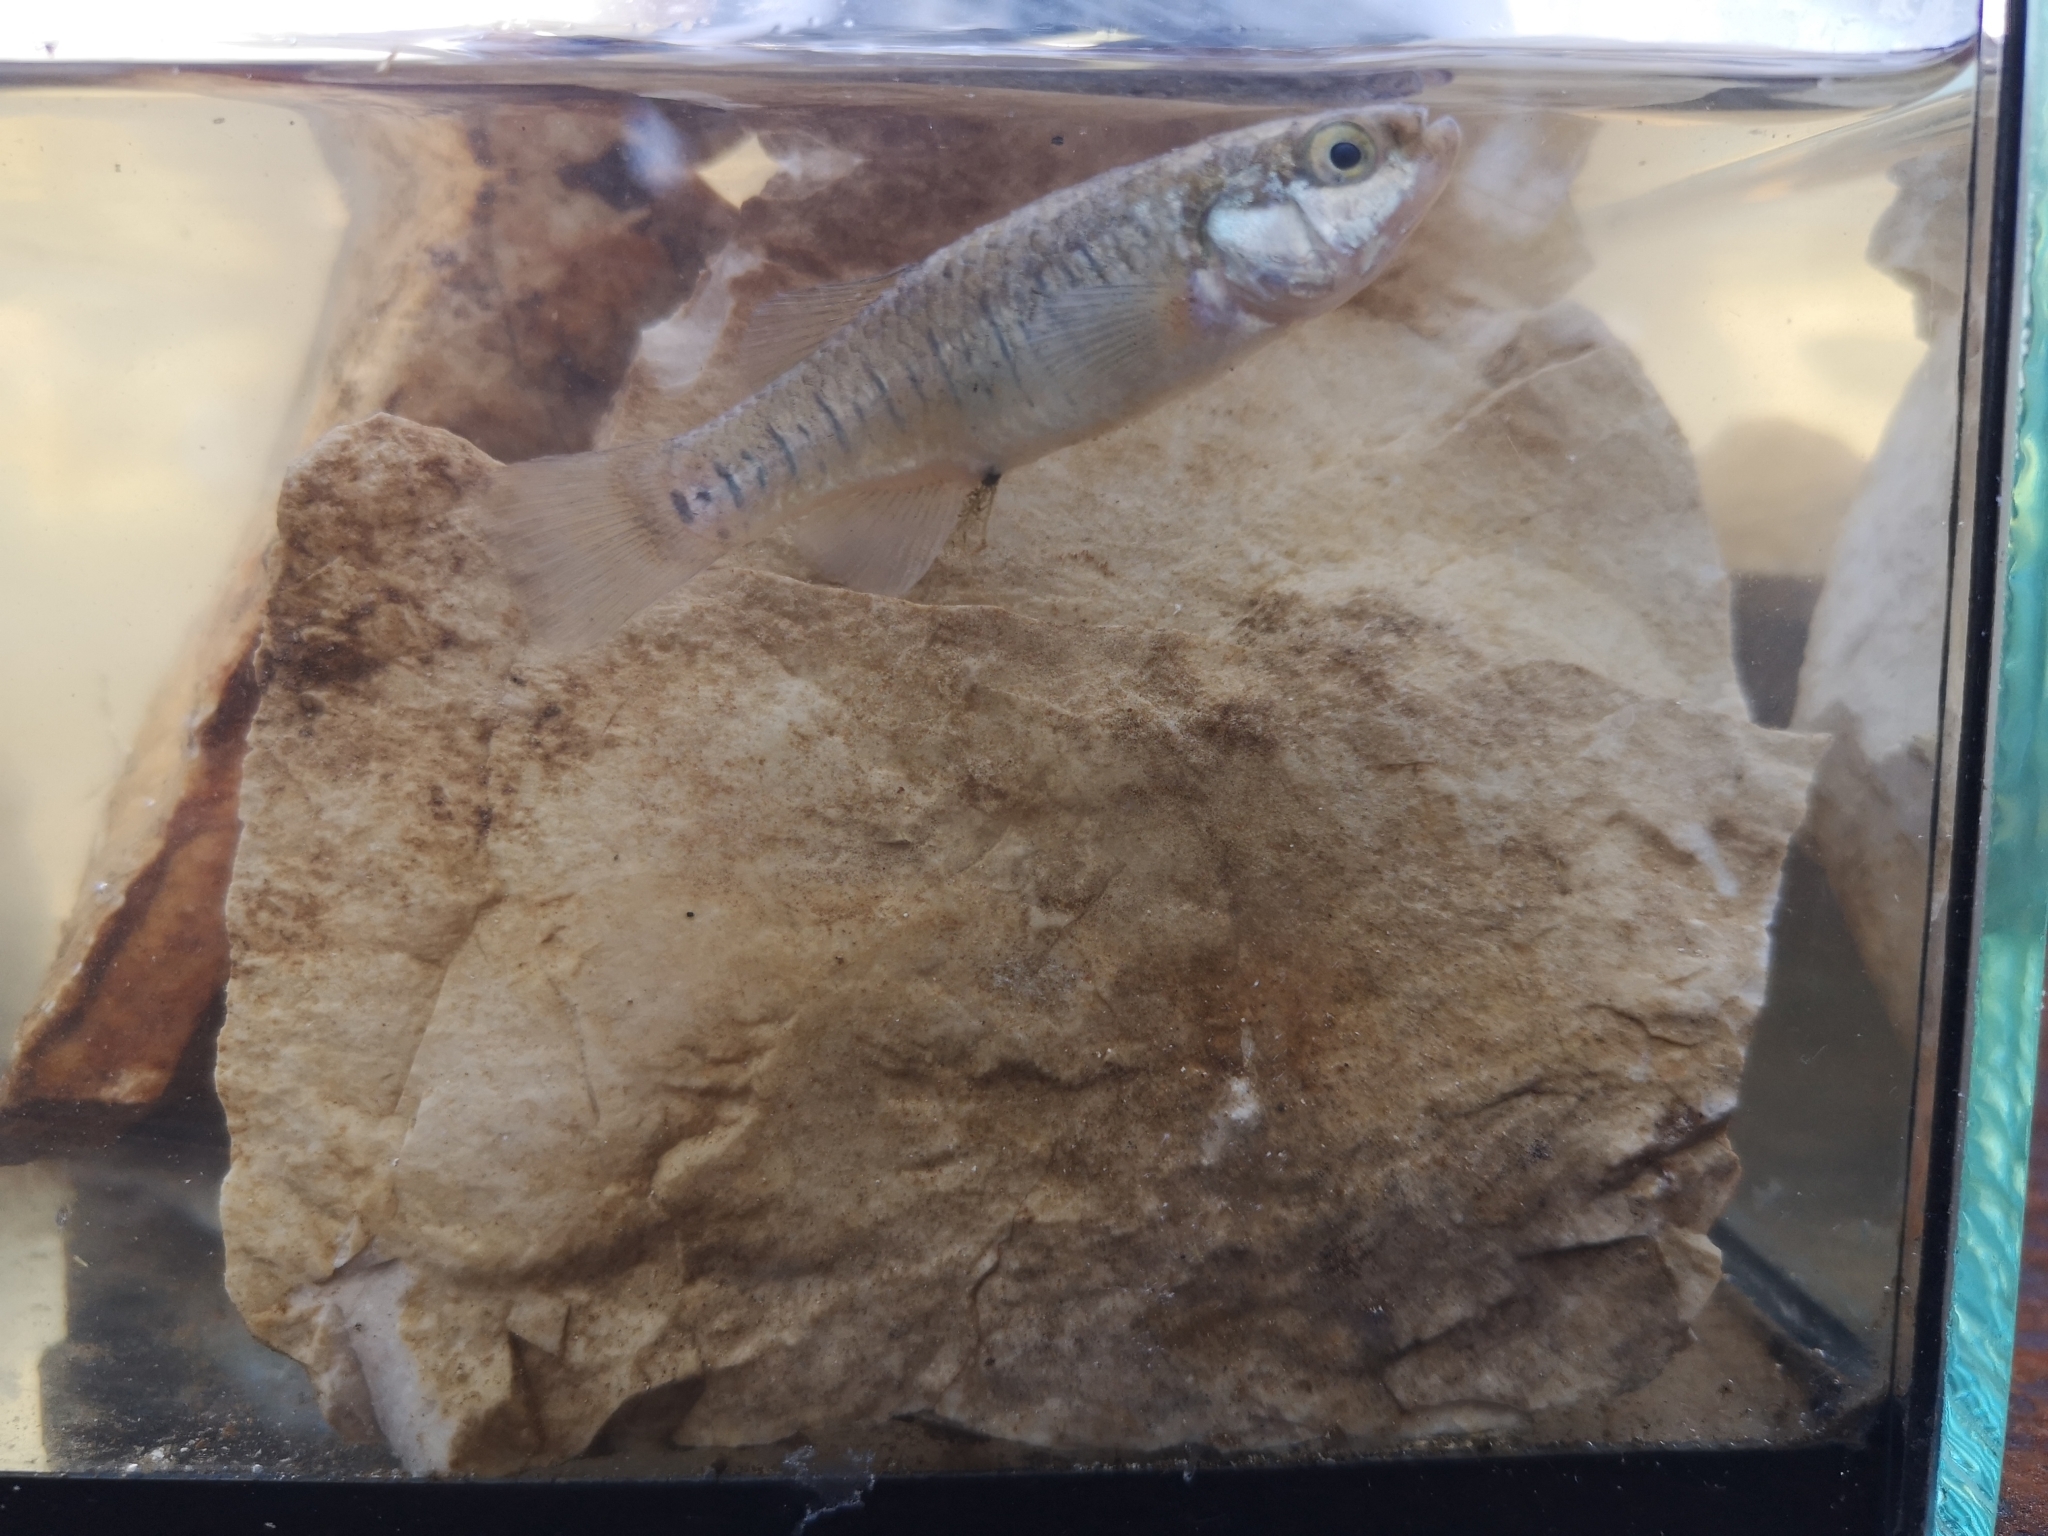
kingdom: Animalia
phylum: Chordata
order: Cyprinodontiformes
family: Cyprinodontidae
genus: Aphanius
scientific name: Aphanius fasciatus
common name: Mediterranean banded killifish
